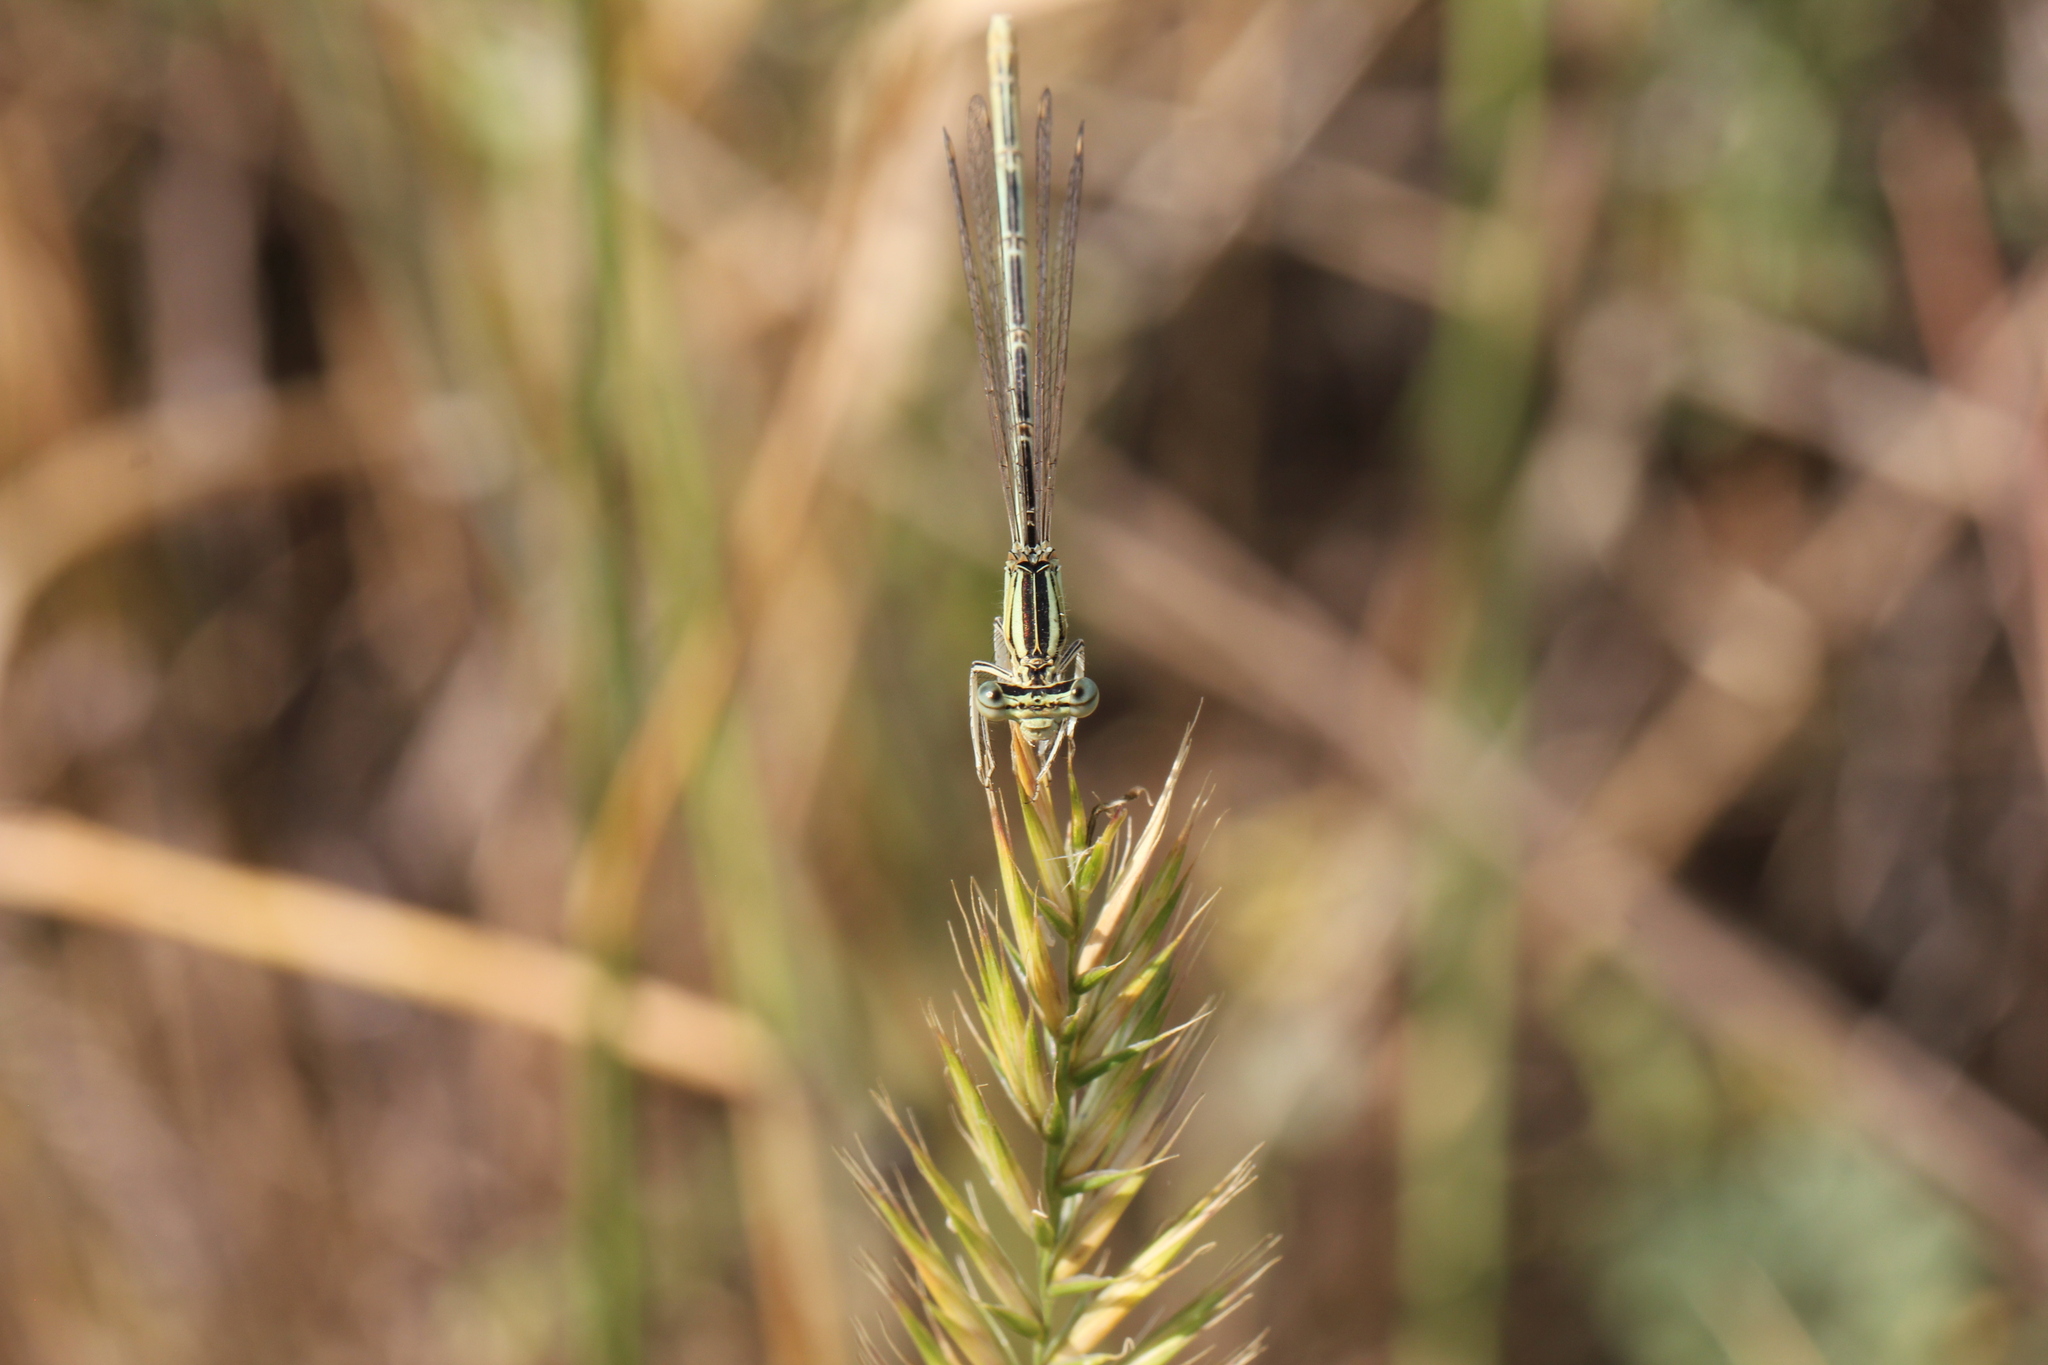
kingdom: Animalia
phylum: Arthropoda
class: Insecta
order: Odonata
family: Platycnemididae
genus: Platycnemis
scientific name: Platycnemis pennipes
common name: White-legged damselfly
